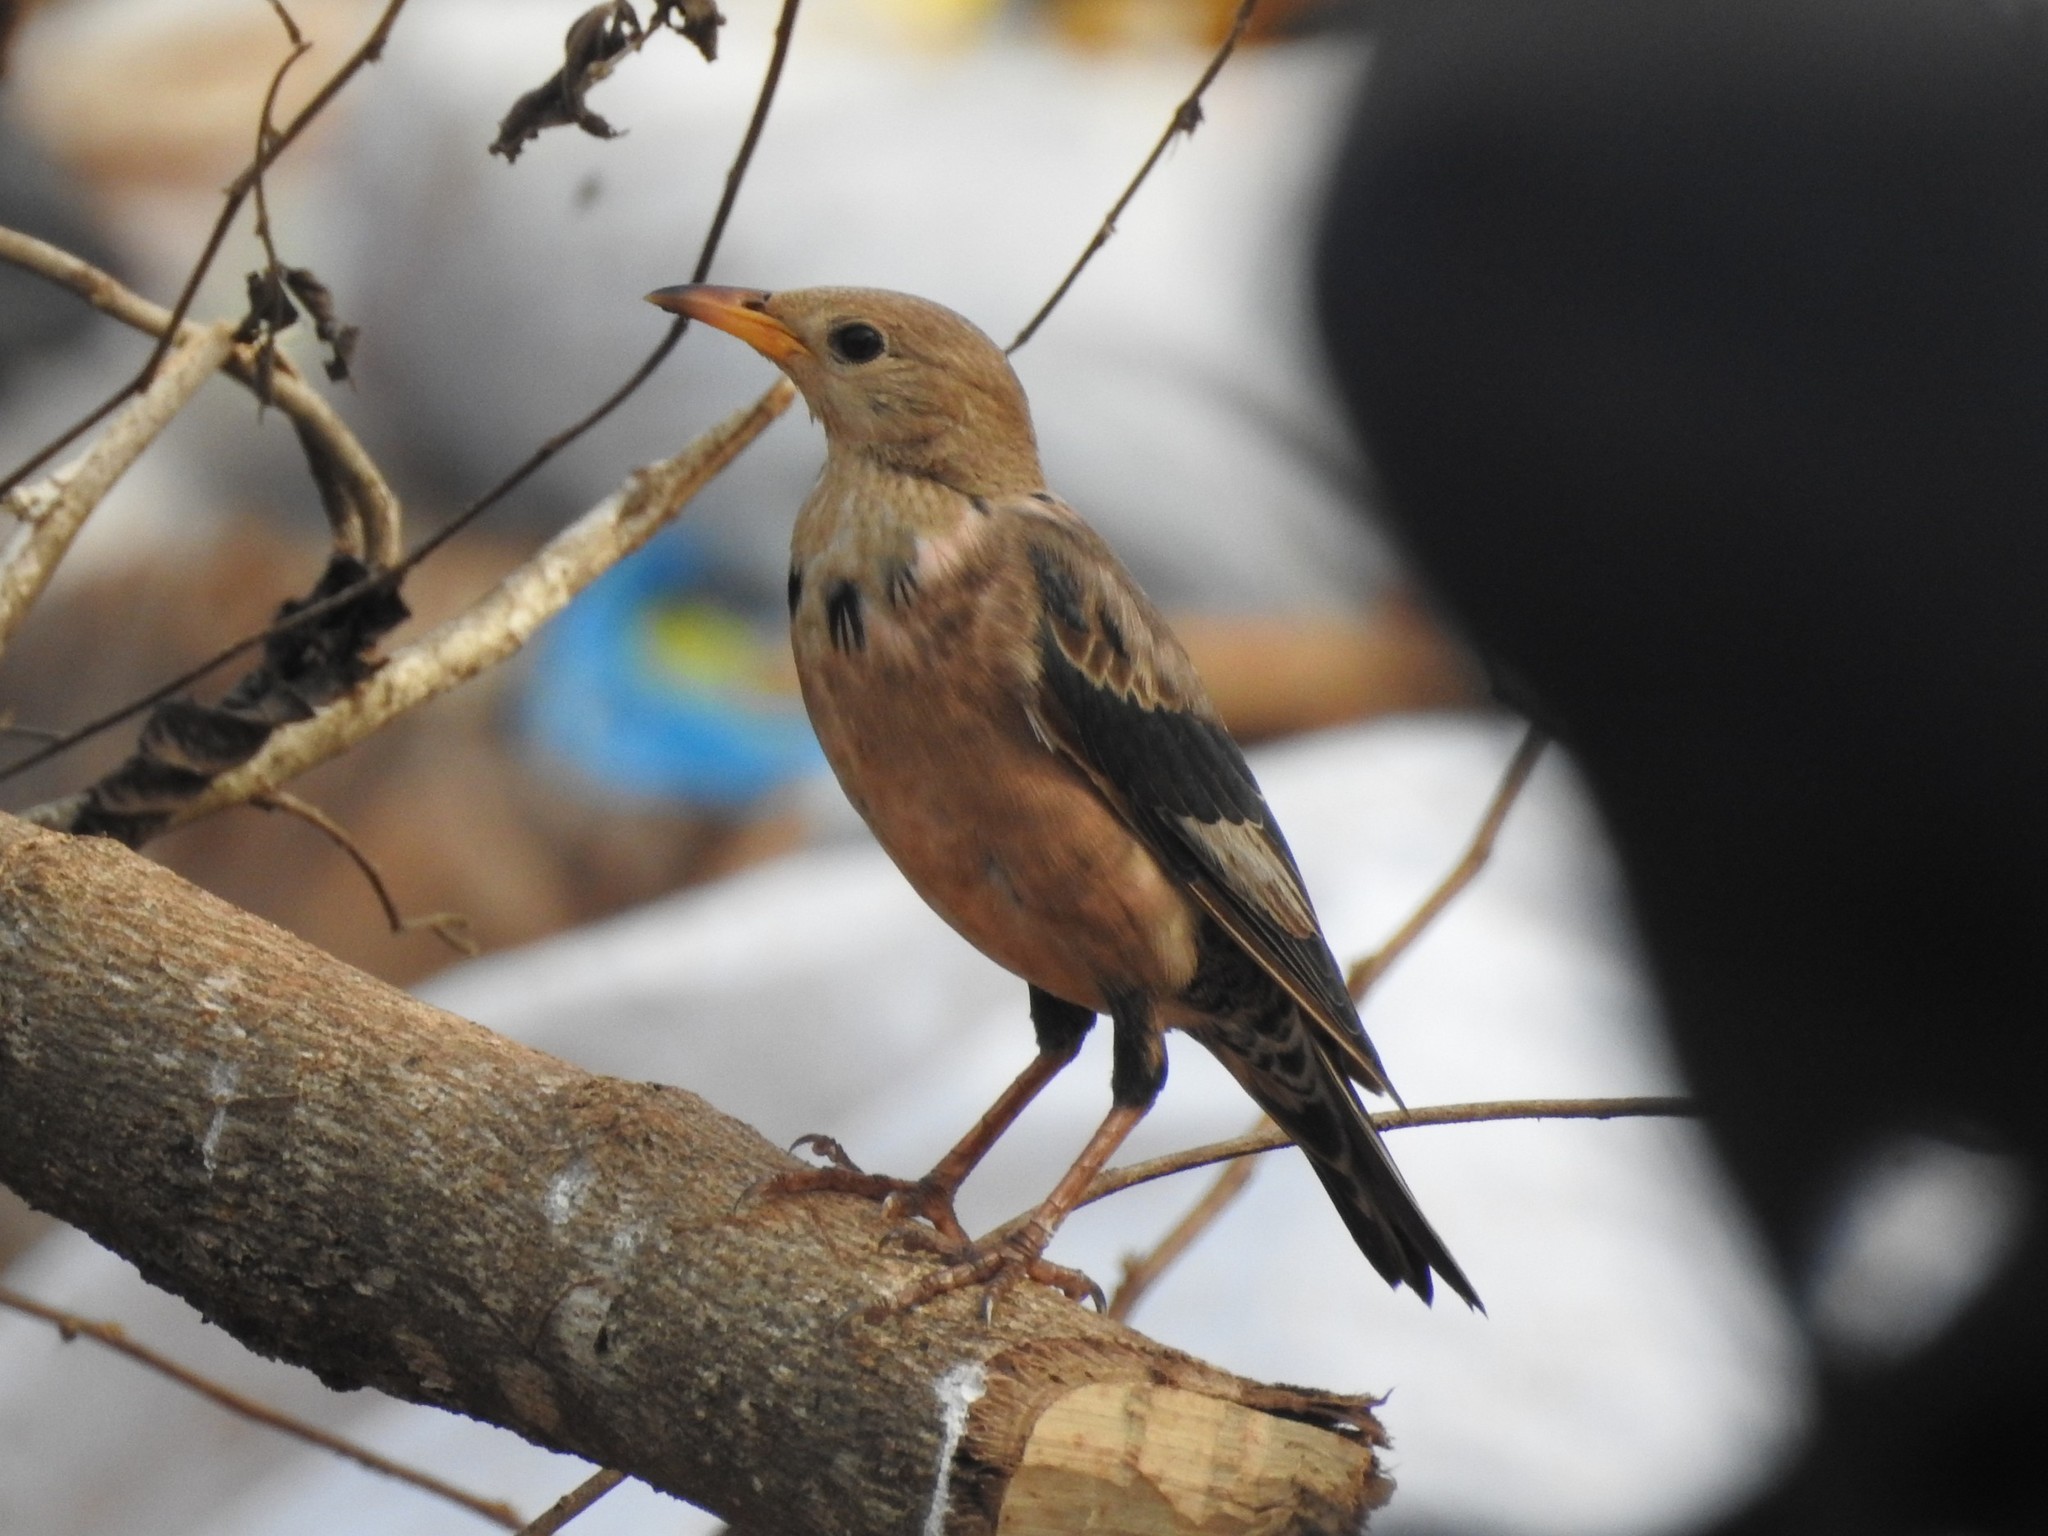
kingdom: Animalia
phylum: Chordata
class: Aves
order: Passeriformes
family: Sturnidae
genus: Pastor
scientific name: Pastor roseus
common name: Rosy starling
